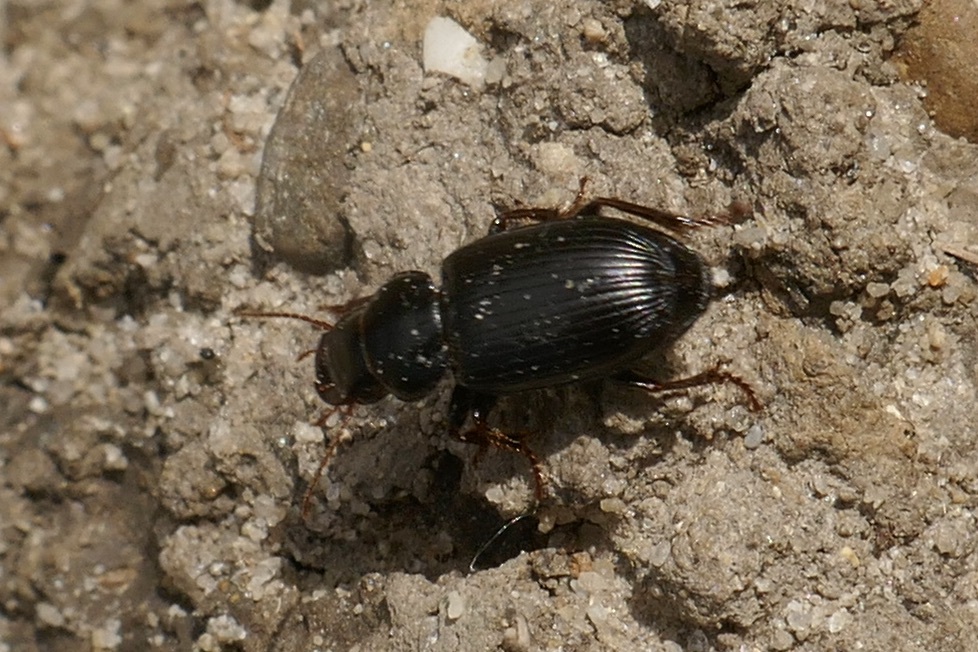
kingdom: Animalia
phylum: Arthropoda
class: Insecta
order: Coleoptera
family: Carabidae
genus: Pangus
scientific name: Pangus scaritides
